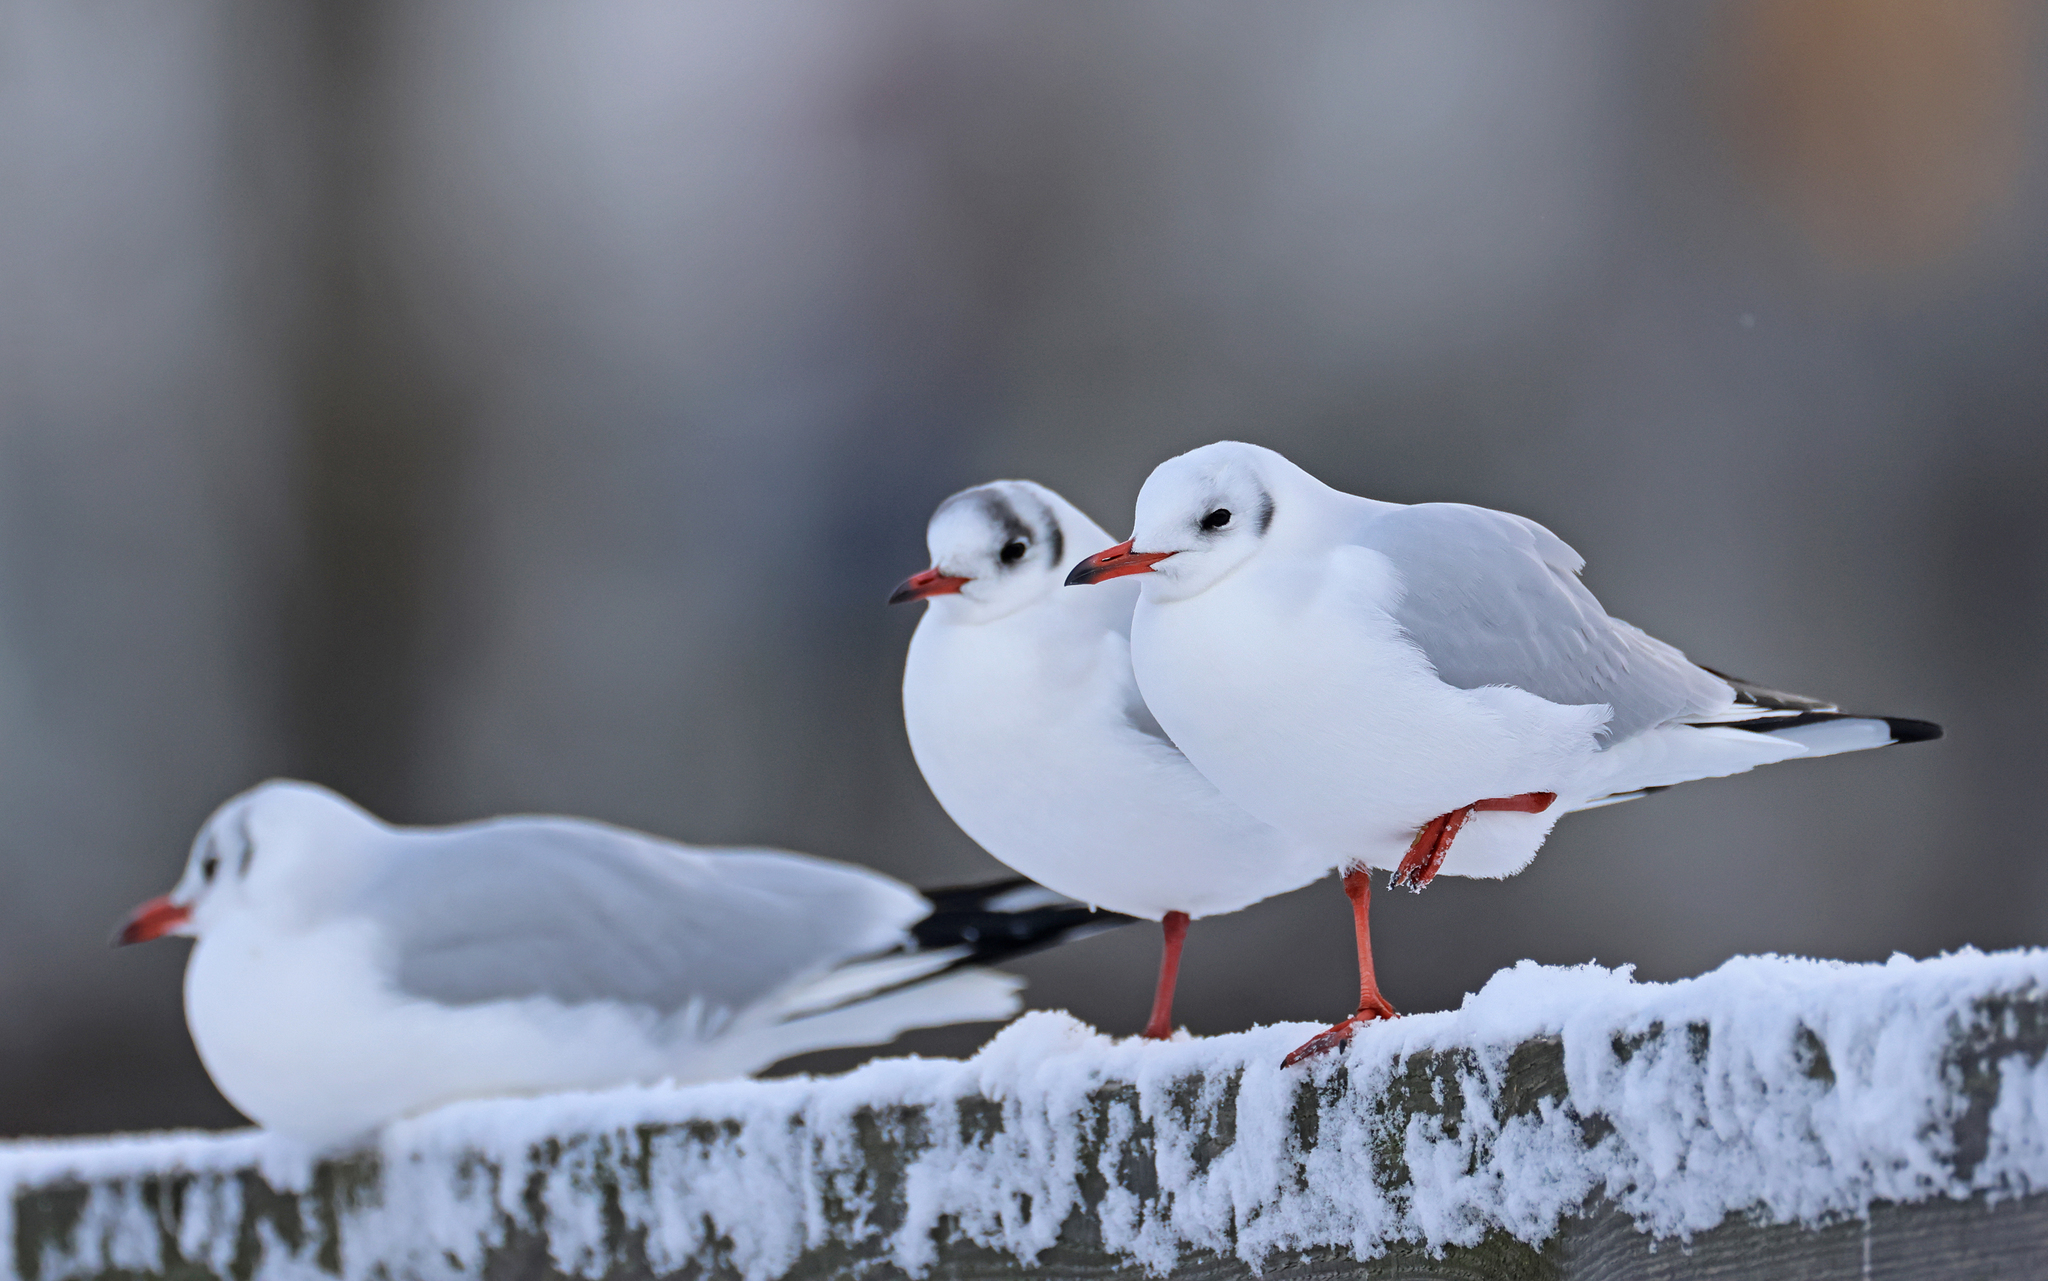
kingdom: Animalia
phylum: Chordata
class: Aves
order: Charadriiformes
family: Laridae
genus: Chroicocephalus
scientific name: Chroicocephalus ridibundus
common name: Black-headed gull
